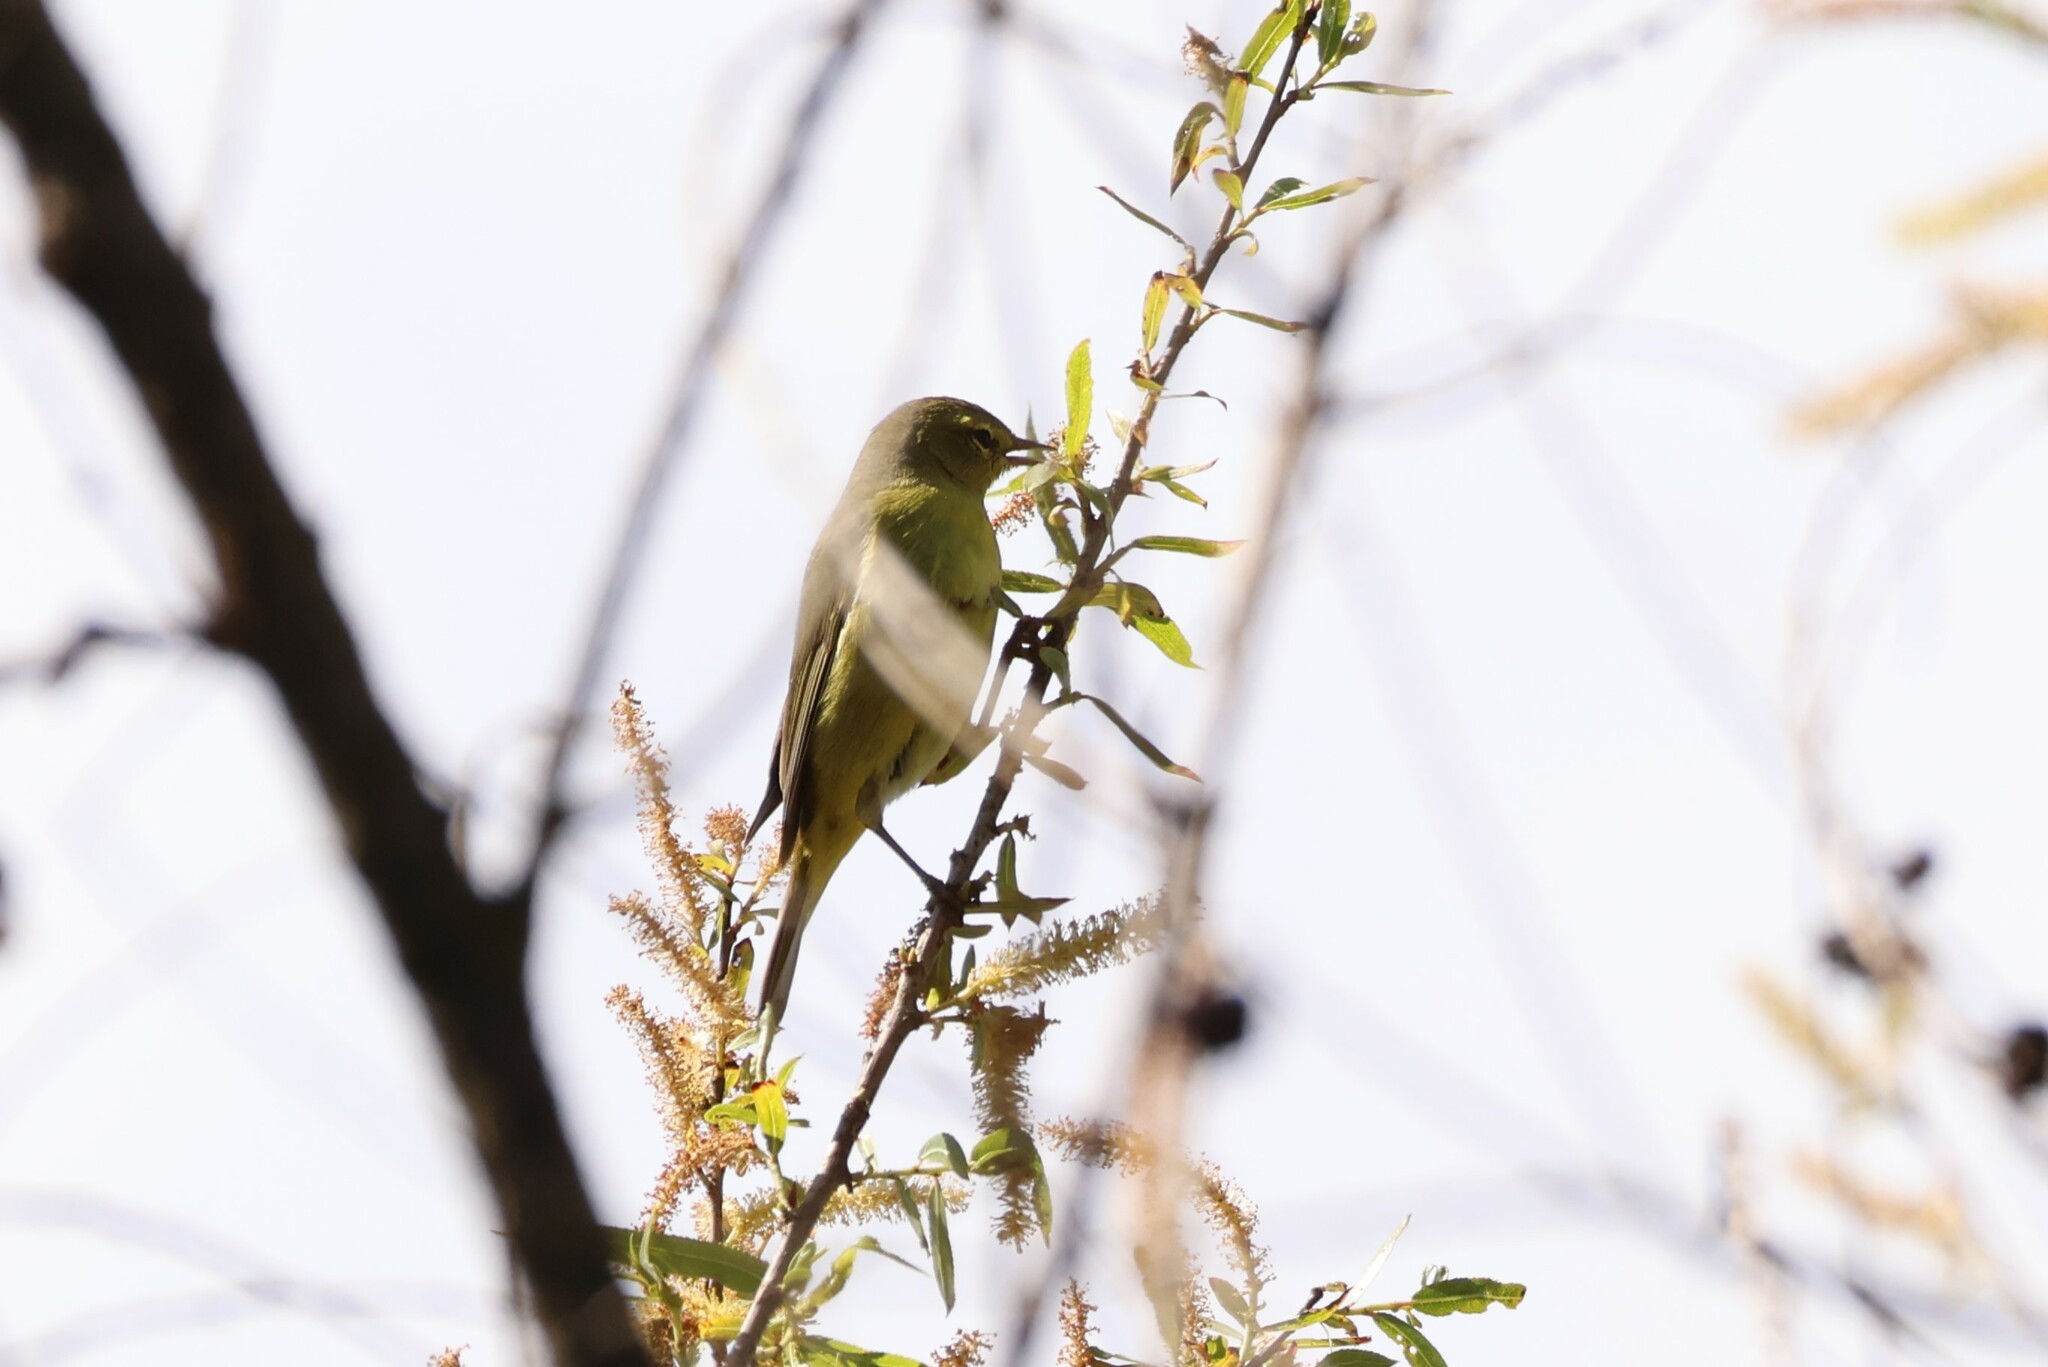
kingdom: Animalia
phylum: Chordata
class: Aves
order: Passeriformes
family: Parulidae
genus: Leiothlypis
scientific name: Leiothlypis celata
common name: Orange-crowned warbler
